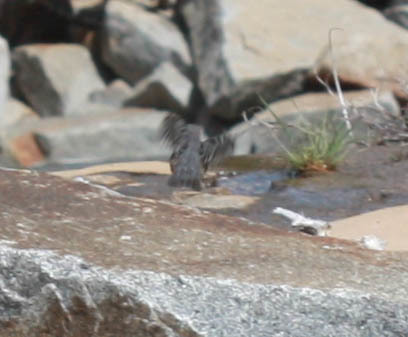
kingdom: Animalia
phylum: Chordata
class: Aves
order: Passeriformes
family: Cinclidae
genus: Cinclus
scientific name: Cinclus mexicanus
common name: American dipper
